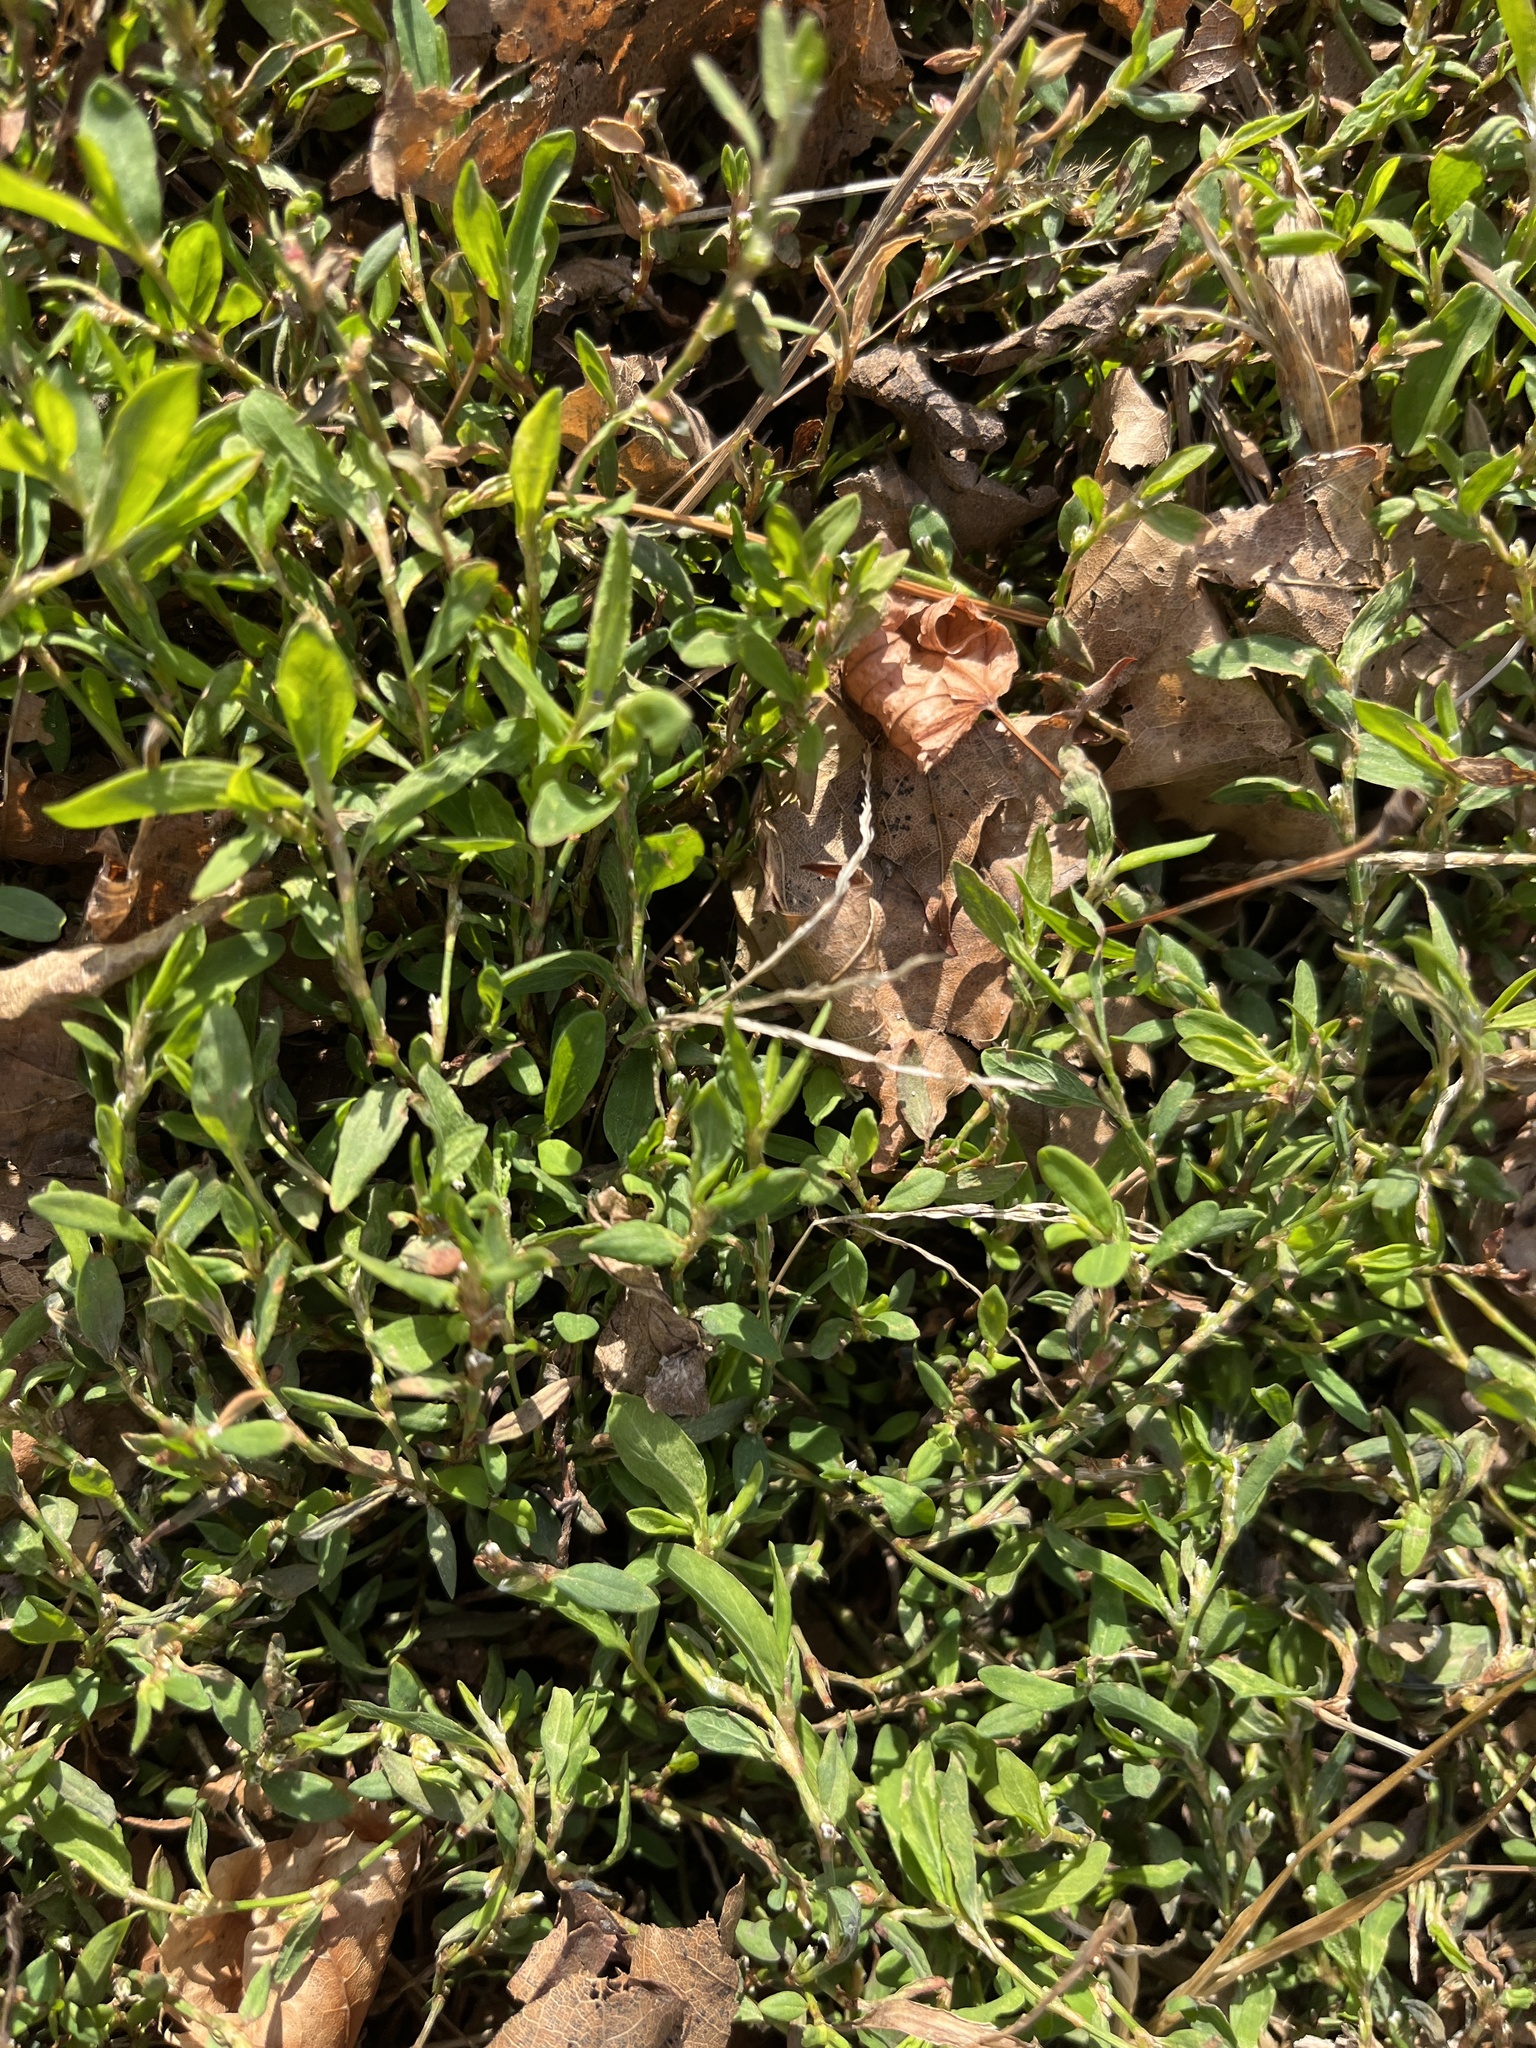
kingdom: Plantae
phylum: Tracheophyta
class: Magnoliopsida
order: Caryophyllales
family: Polygonaceae
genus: Polygonum
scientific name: Polygonum aviculare
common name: Prostrate knotweed
